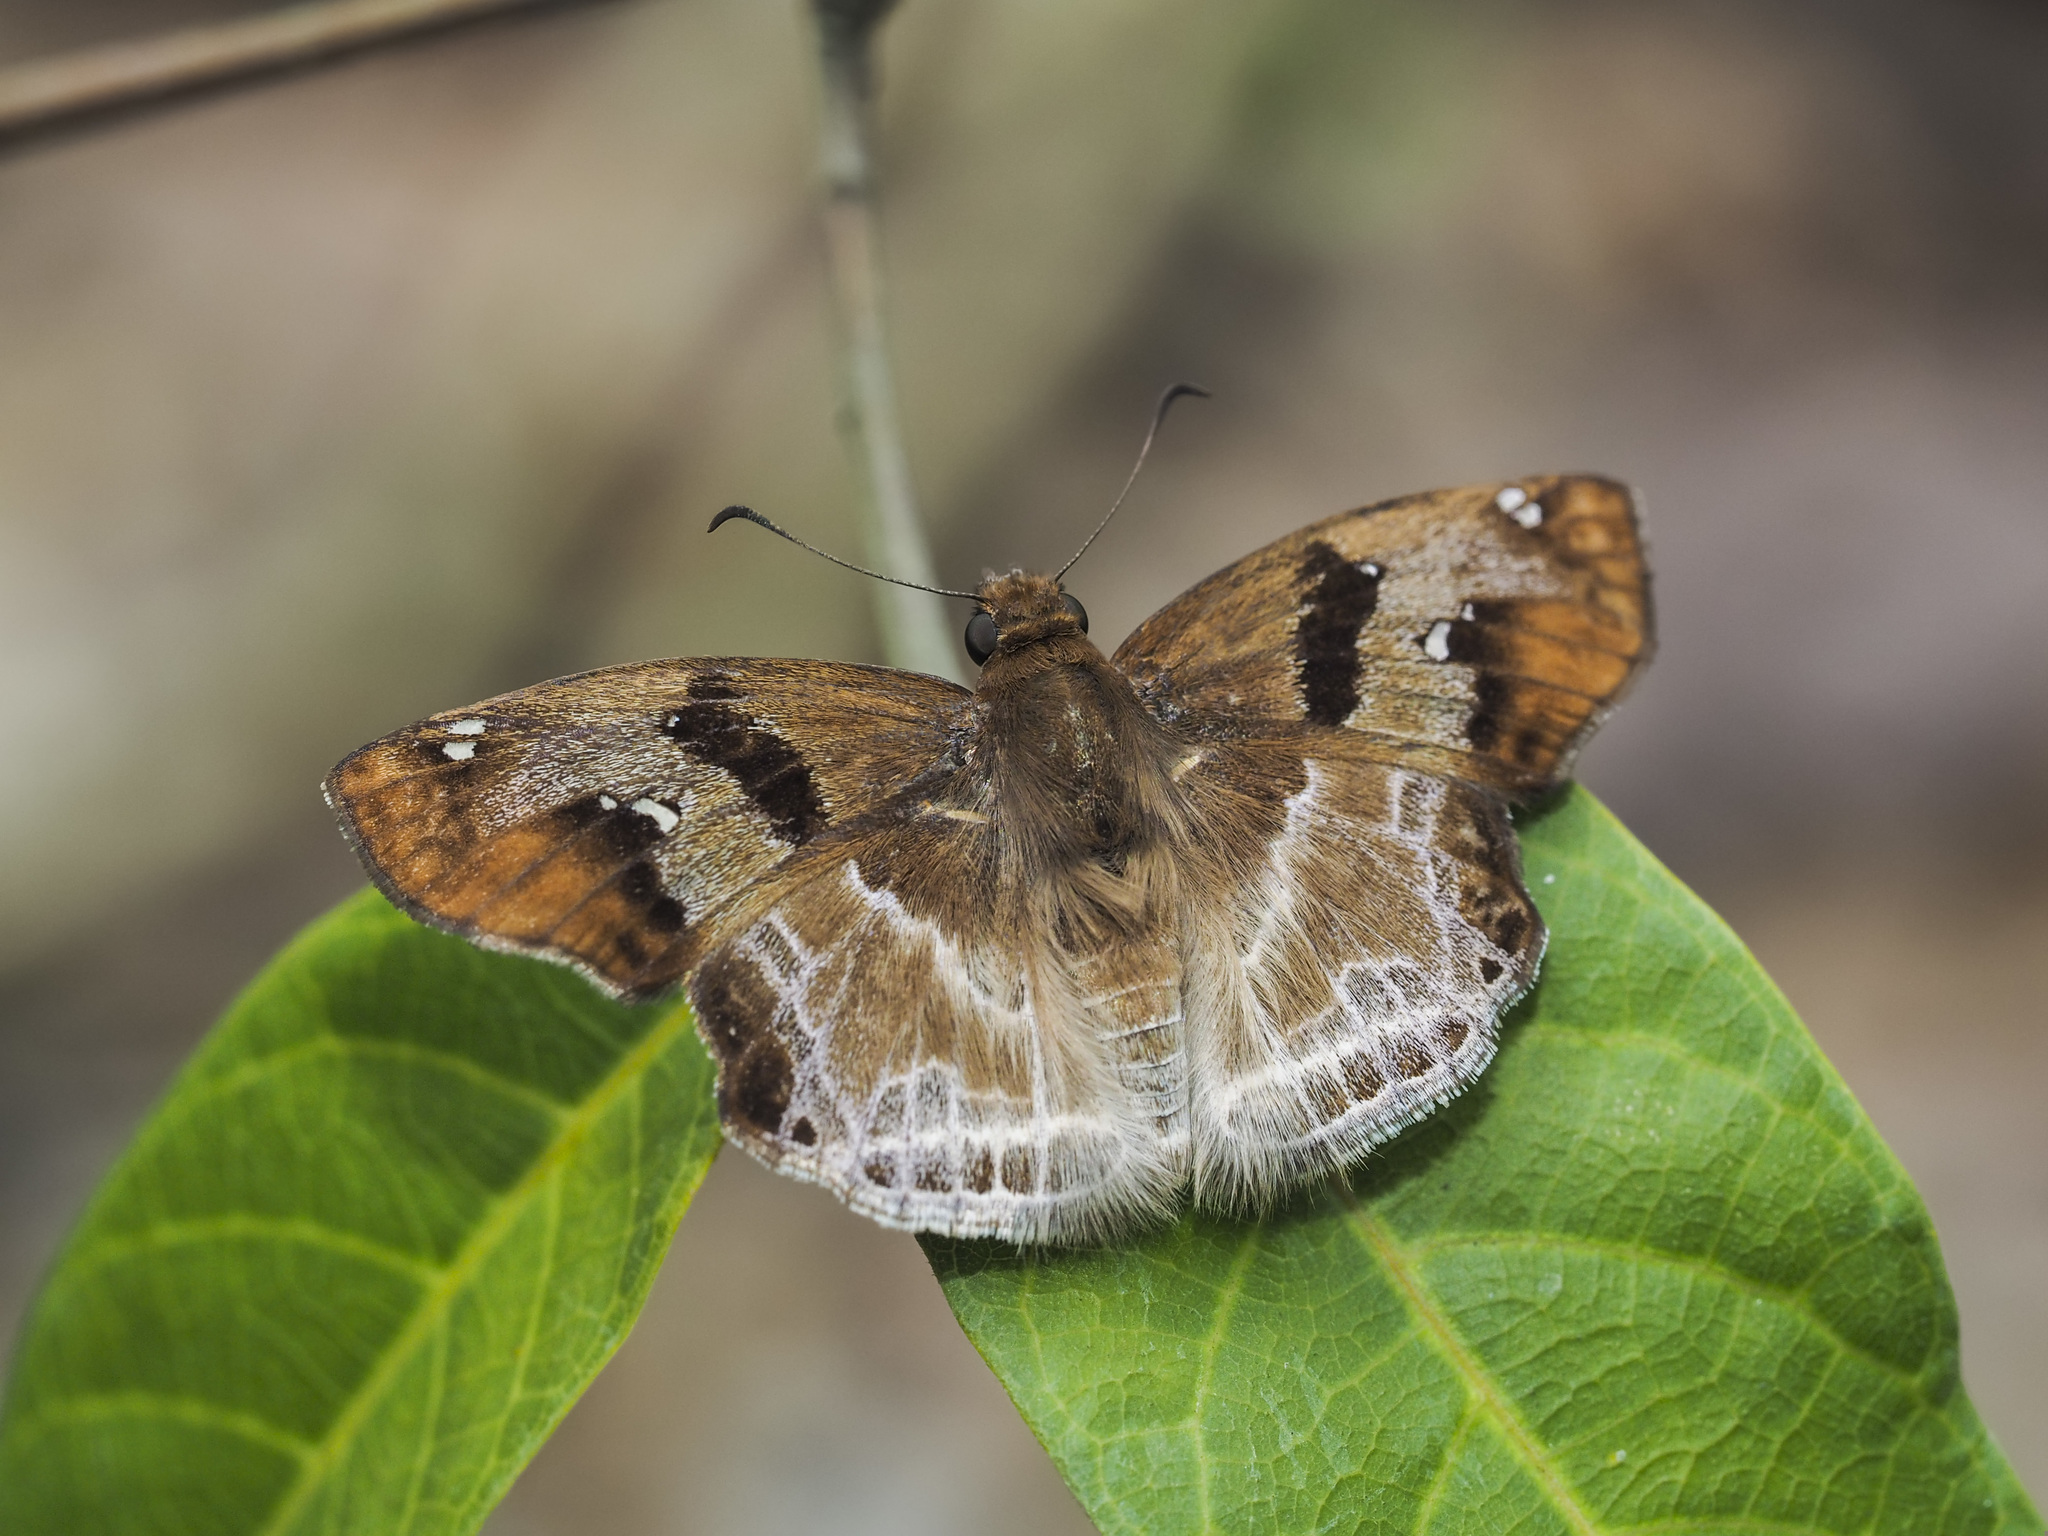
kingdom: Animalia
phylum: Arthropoda
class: Insecta
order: Lepidoptera
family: Hesperiidae
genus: Odontoptilum
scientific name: Odontoptilum angulata
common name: Chestnut banded angle
